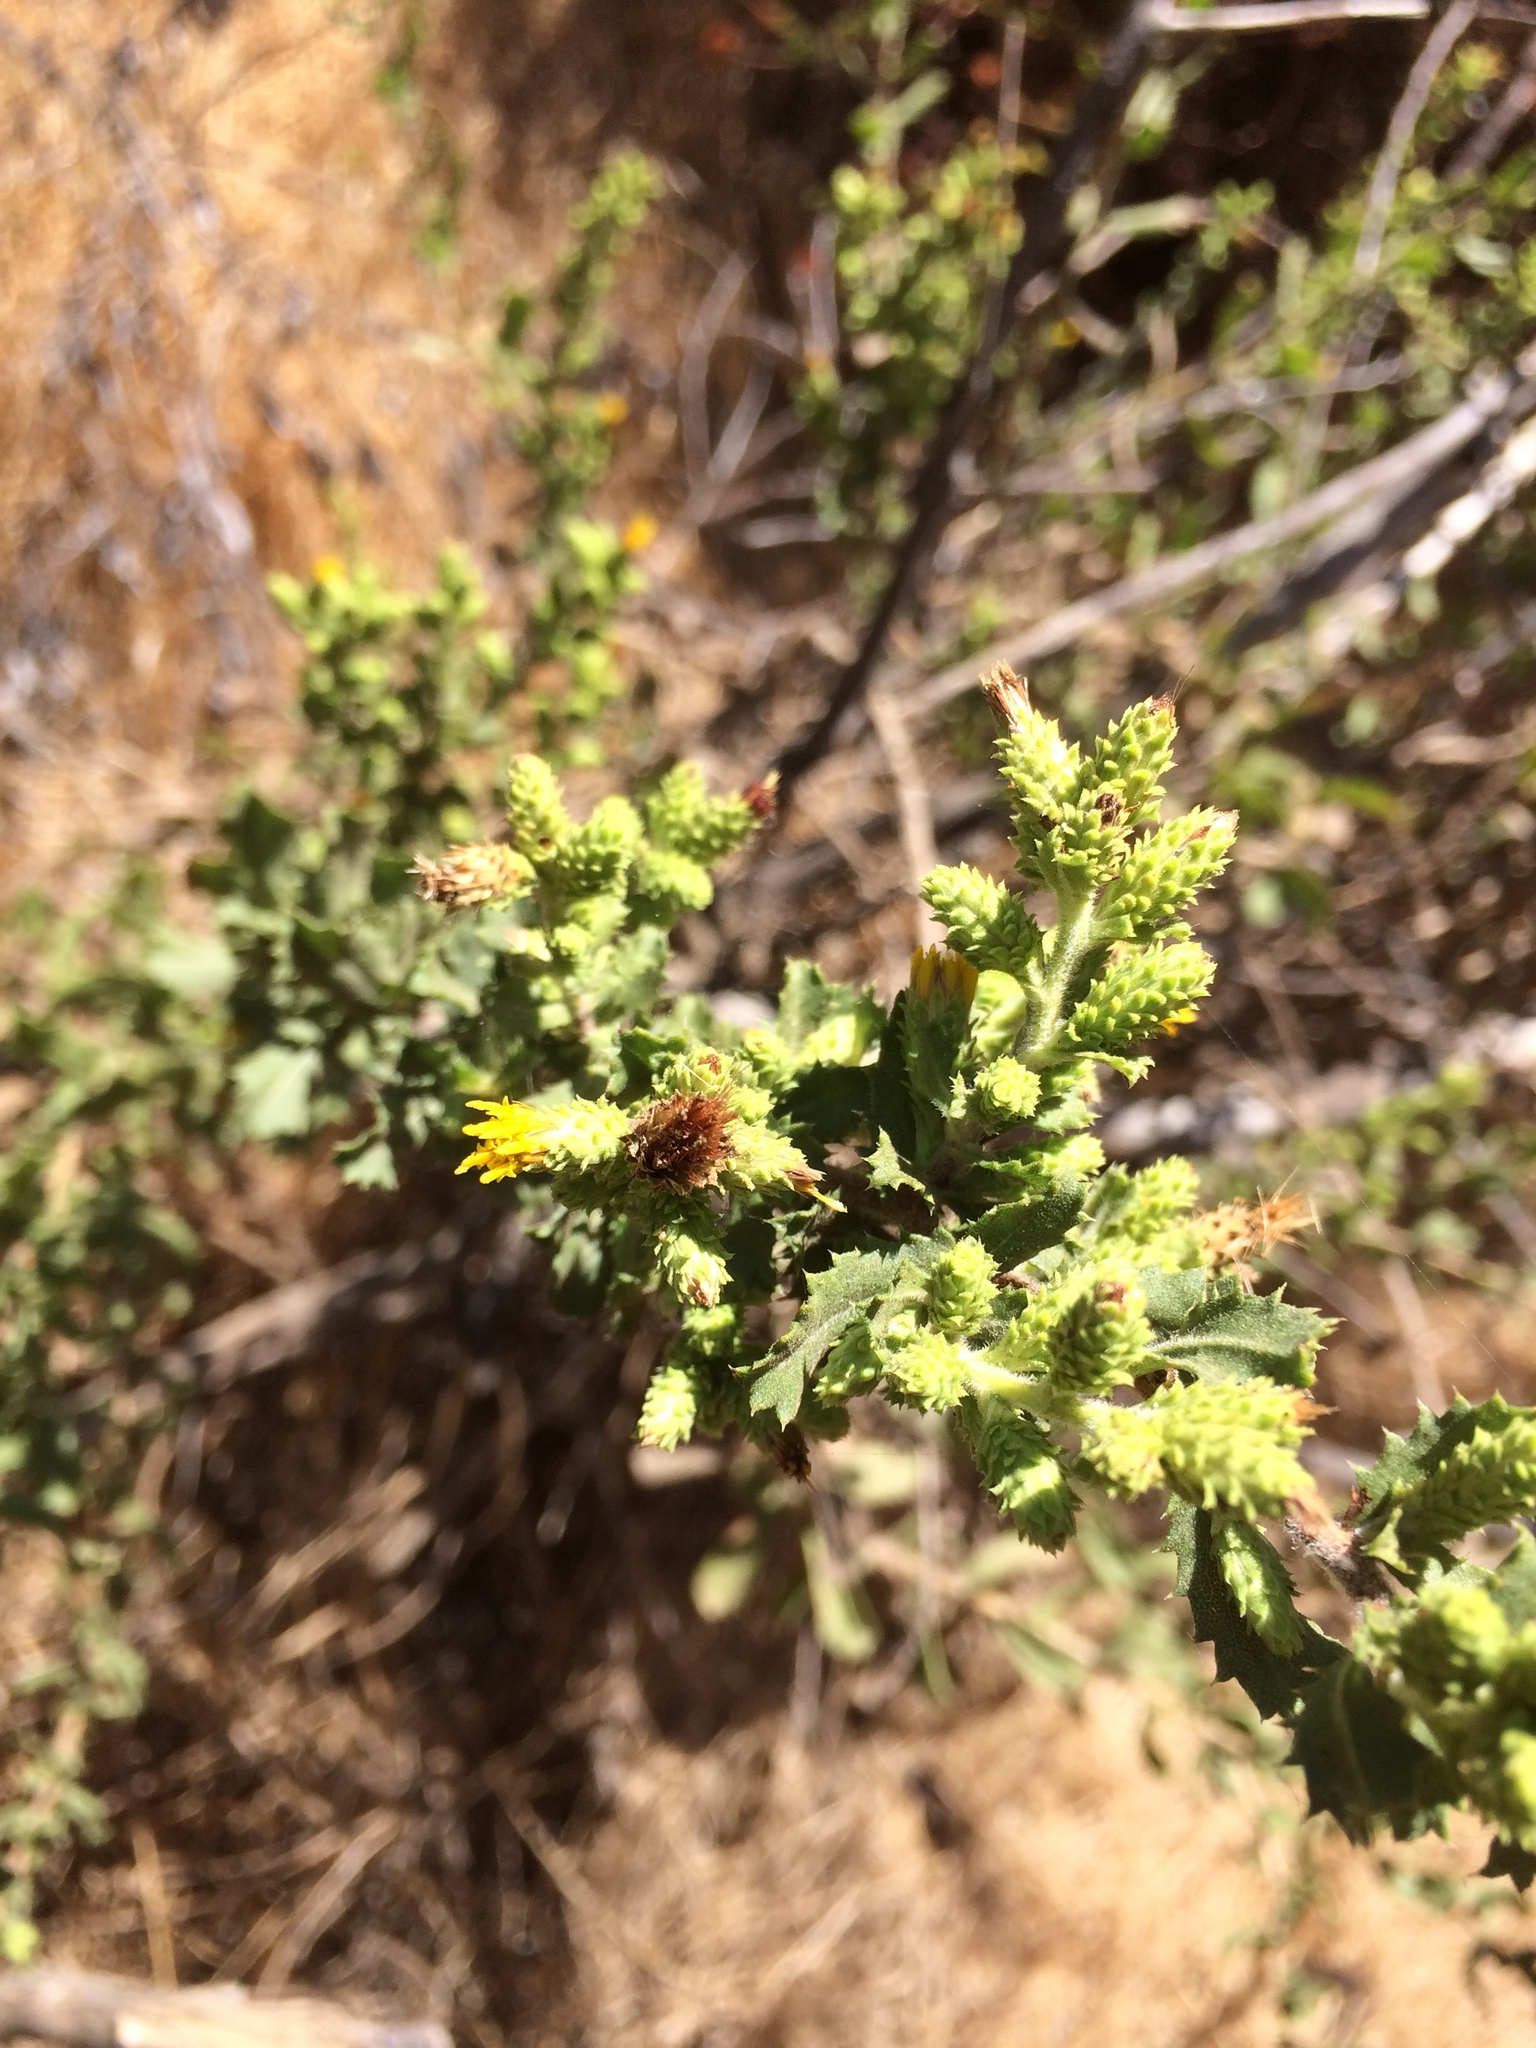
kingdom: Plantae
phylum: Tracheophyta
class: Magnoliopsida
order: Asterales
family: Asteraceae
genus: Hazardia
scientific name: Hazardia squarrosa
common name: Saw-tooth goldenbush
